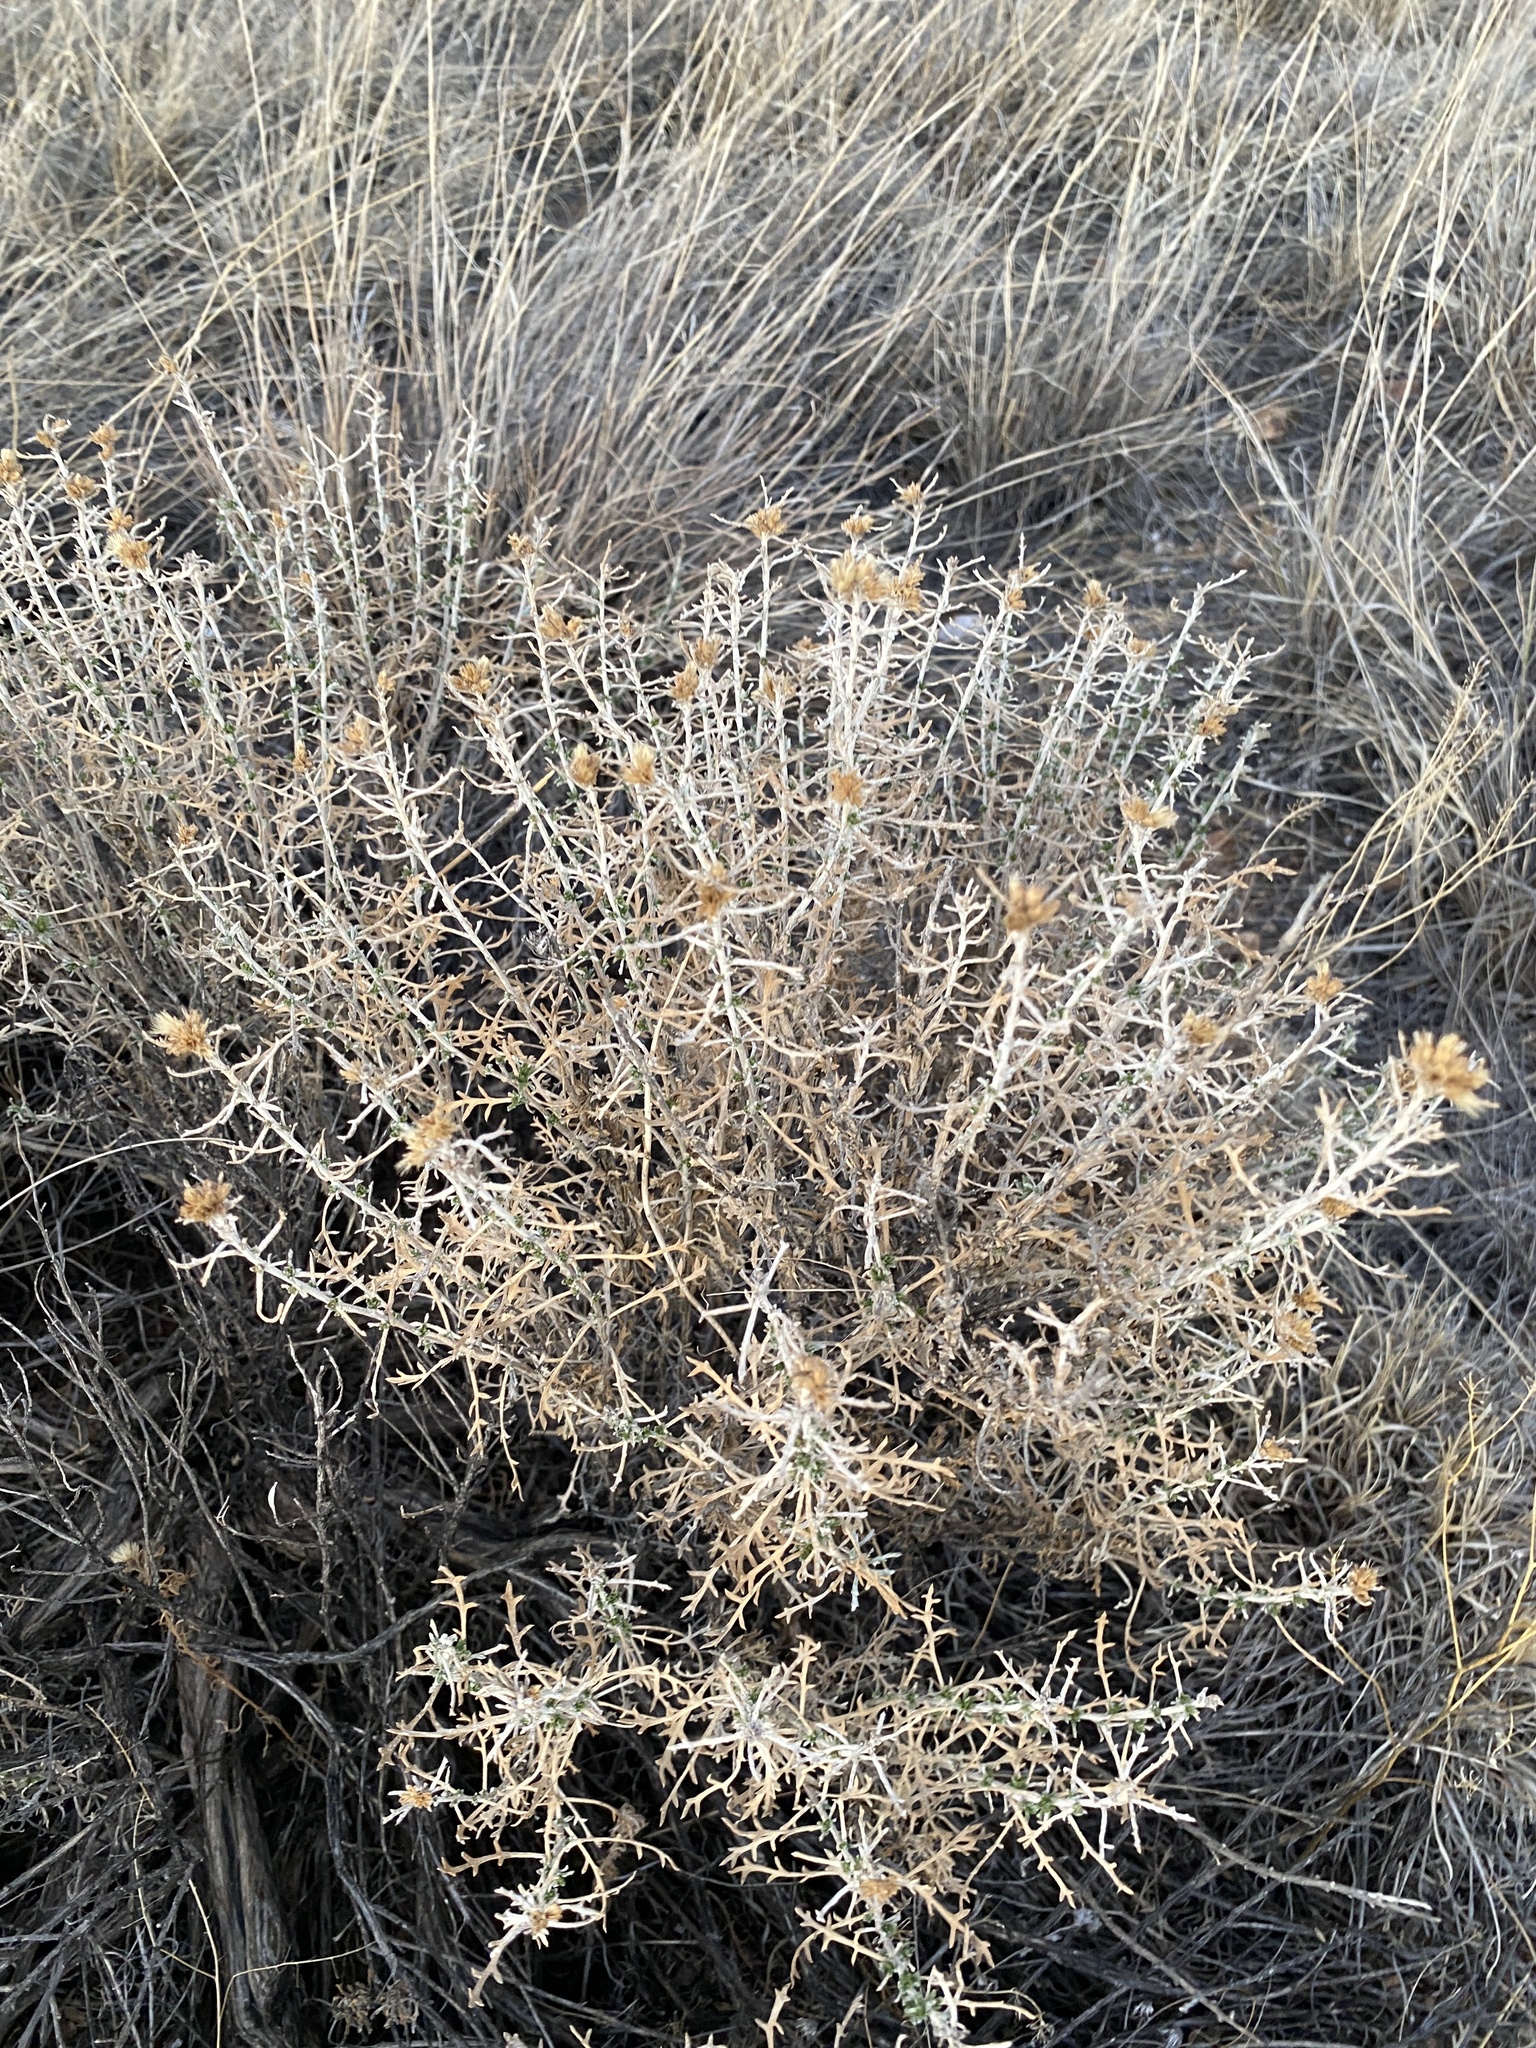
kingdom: Plantae
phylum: Tracheophyta
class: Magnoliopsida
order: Asterales
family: Asteraceae
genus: Isocoma
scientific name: Isocoma tenuisecta
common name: Burroweed
